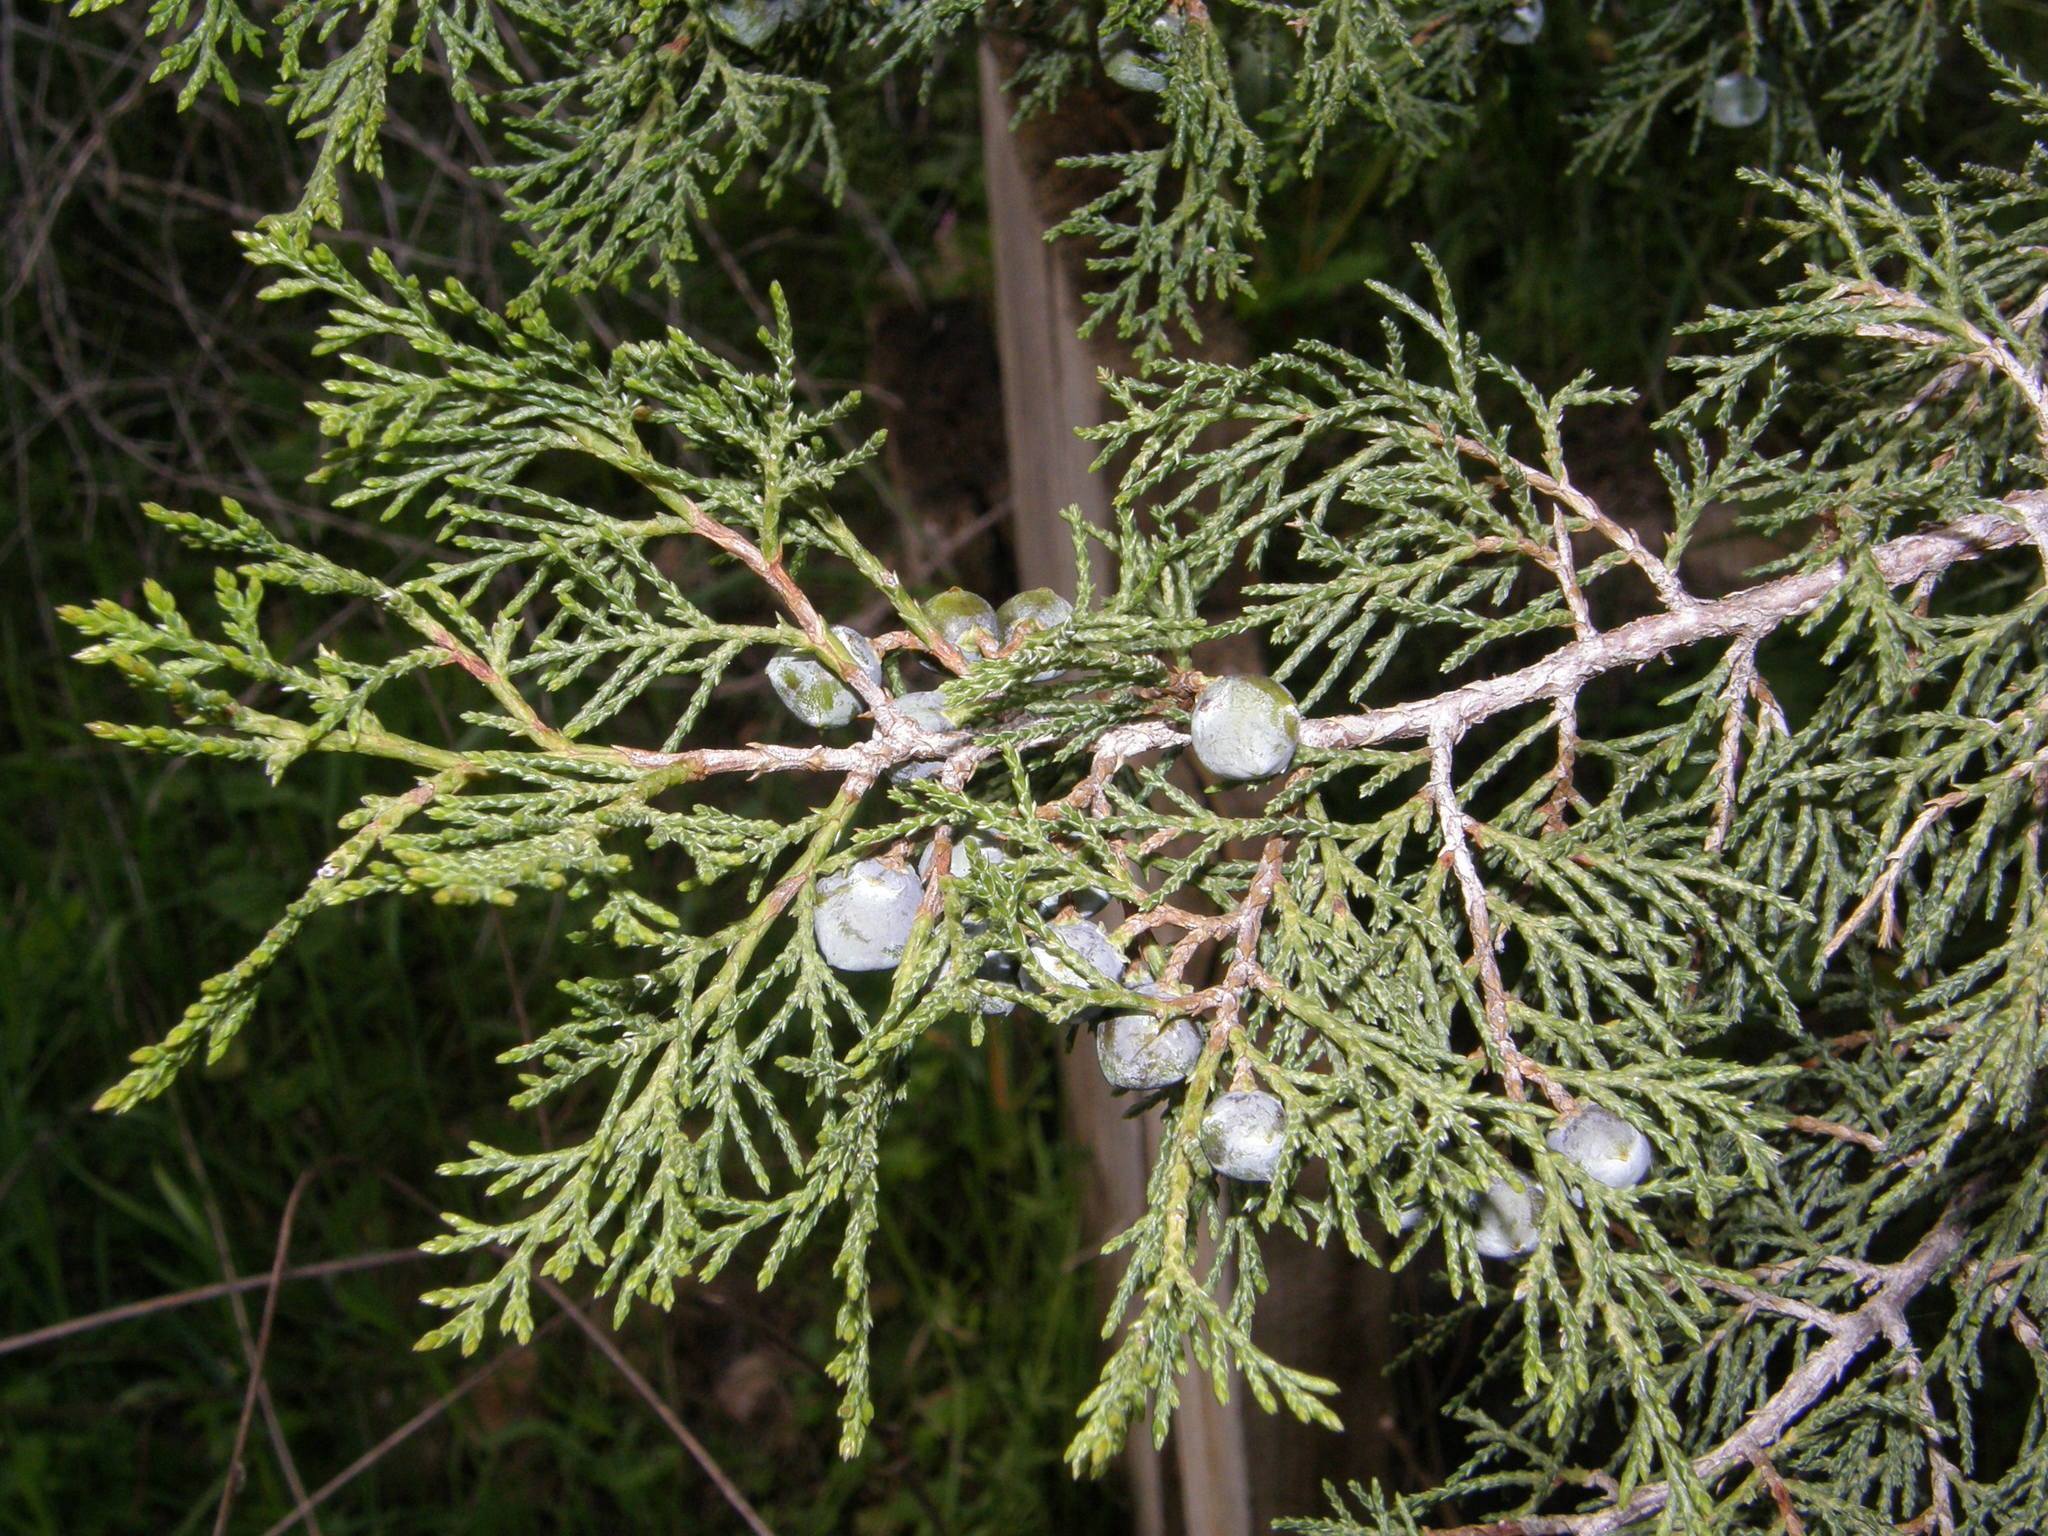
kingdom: Plantae
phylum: Tracheophyta
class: Pinopsida
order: Pinales
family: Cupressaceae
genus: Juniperus
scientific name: Juniperus thurifera
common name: Incense juniper
